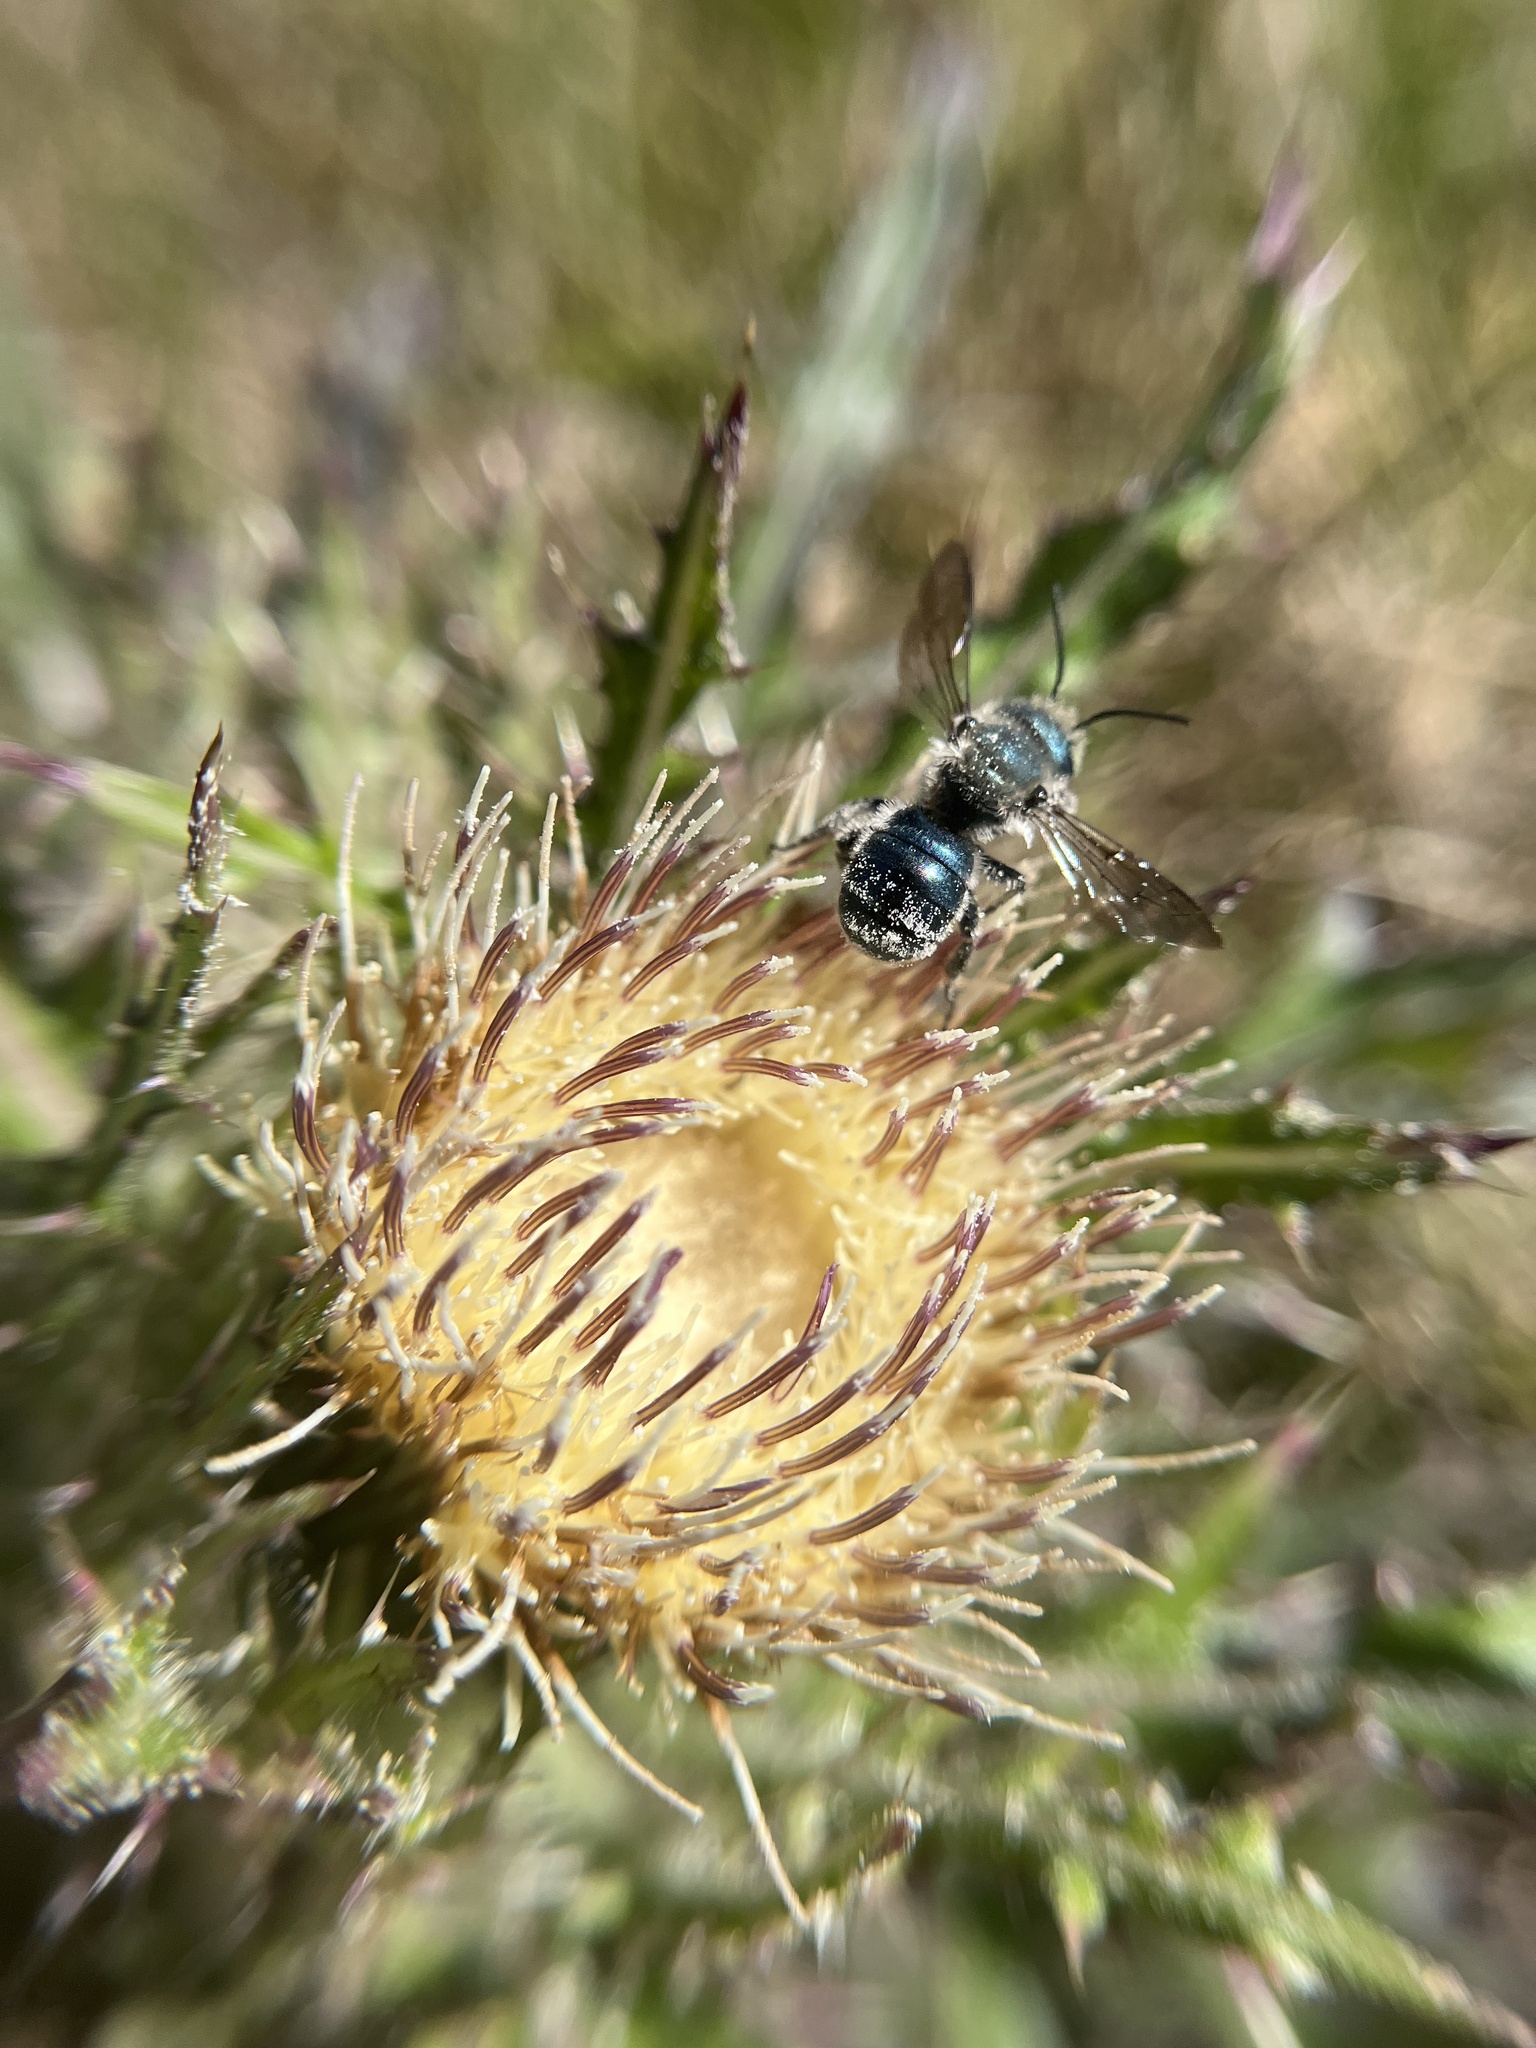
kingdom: Animalia
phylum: Arthropoda
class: Insecta
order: Hymenoptera
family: Megachilidae
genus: Osmia
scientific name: Osmia chalybea
